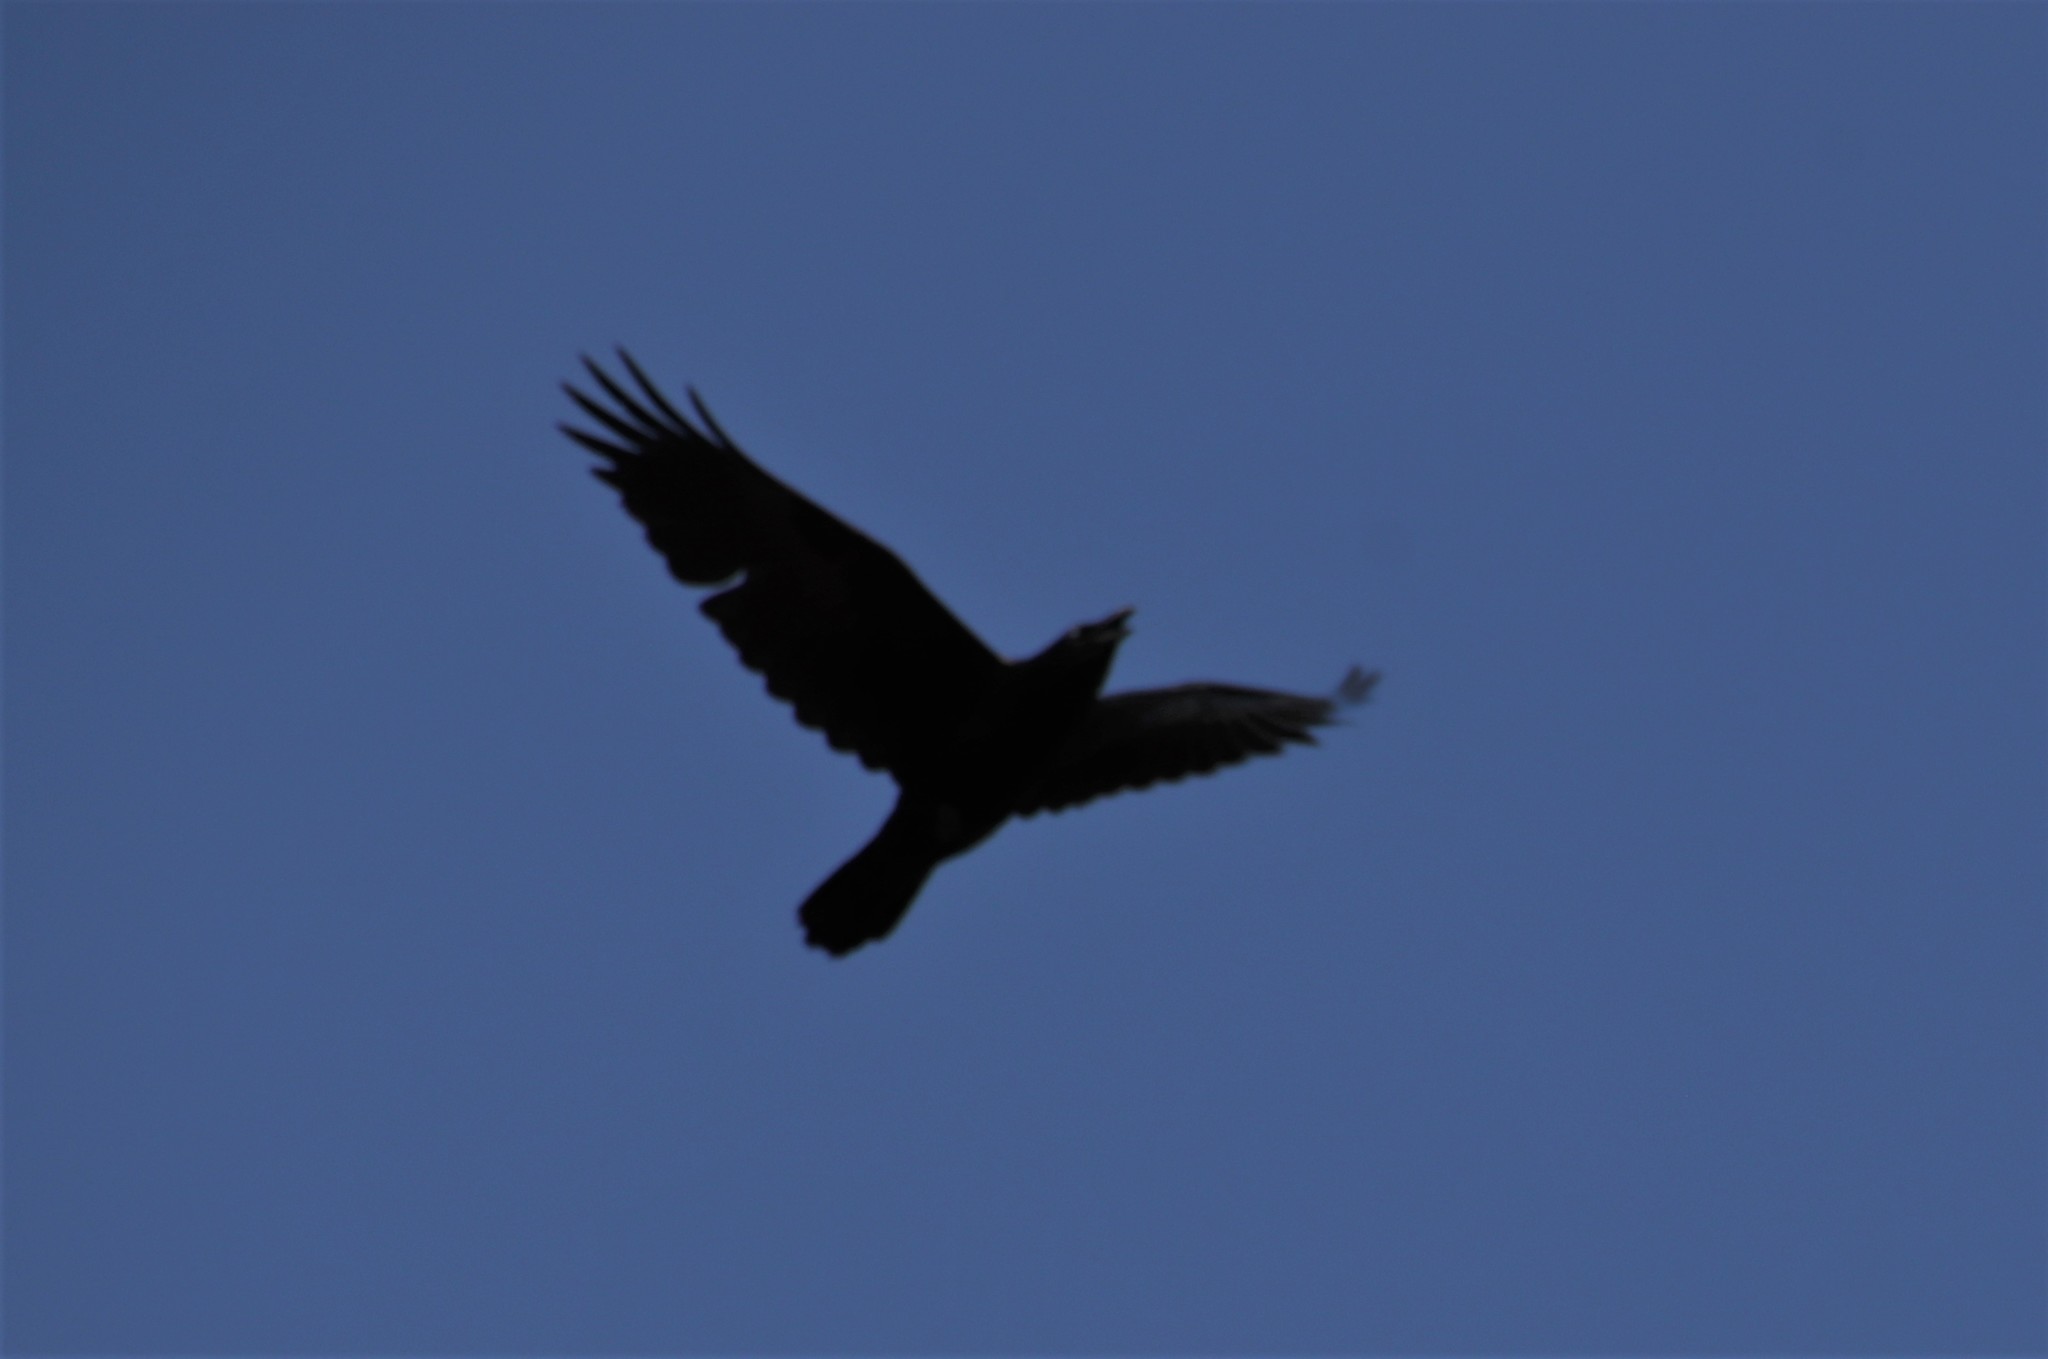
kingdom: Animalia
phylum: Chordata
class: Aves
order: Passeriformes
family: Corvidae
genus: Corvus
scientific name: Corvus corax
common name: Common raven
